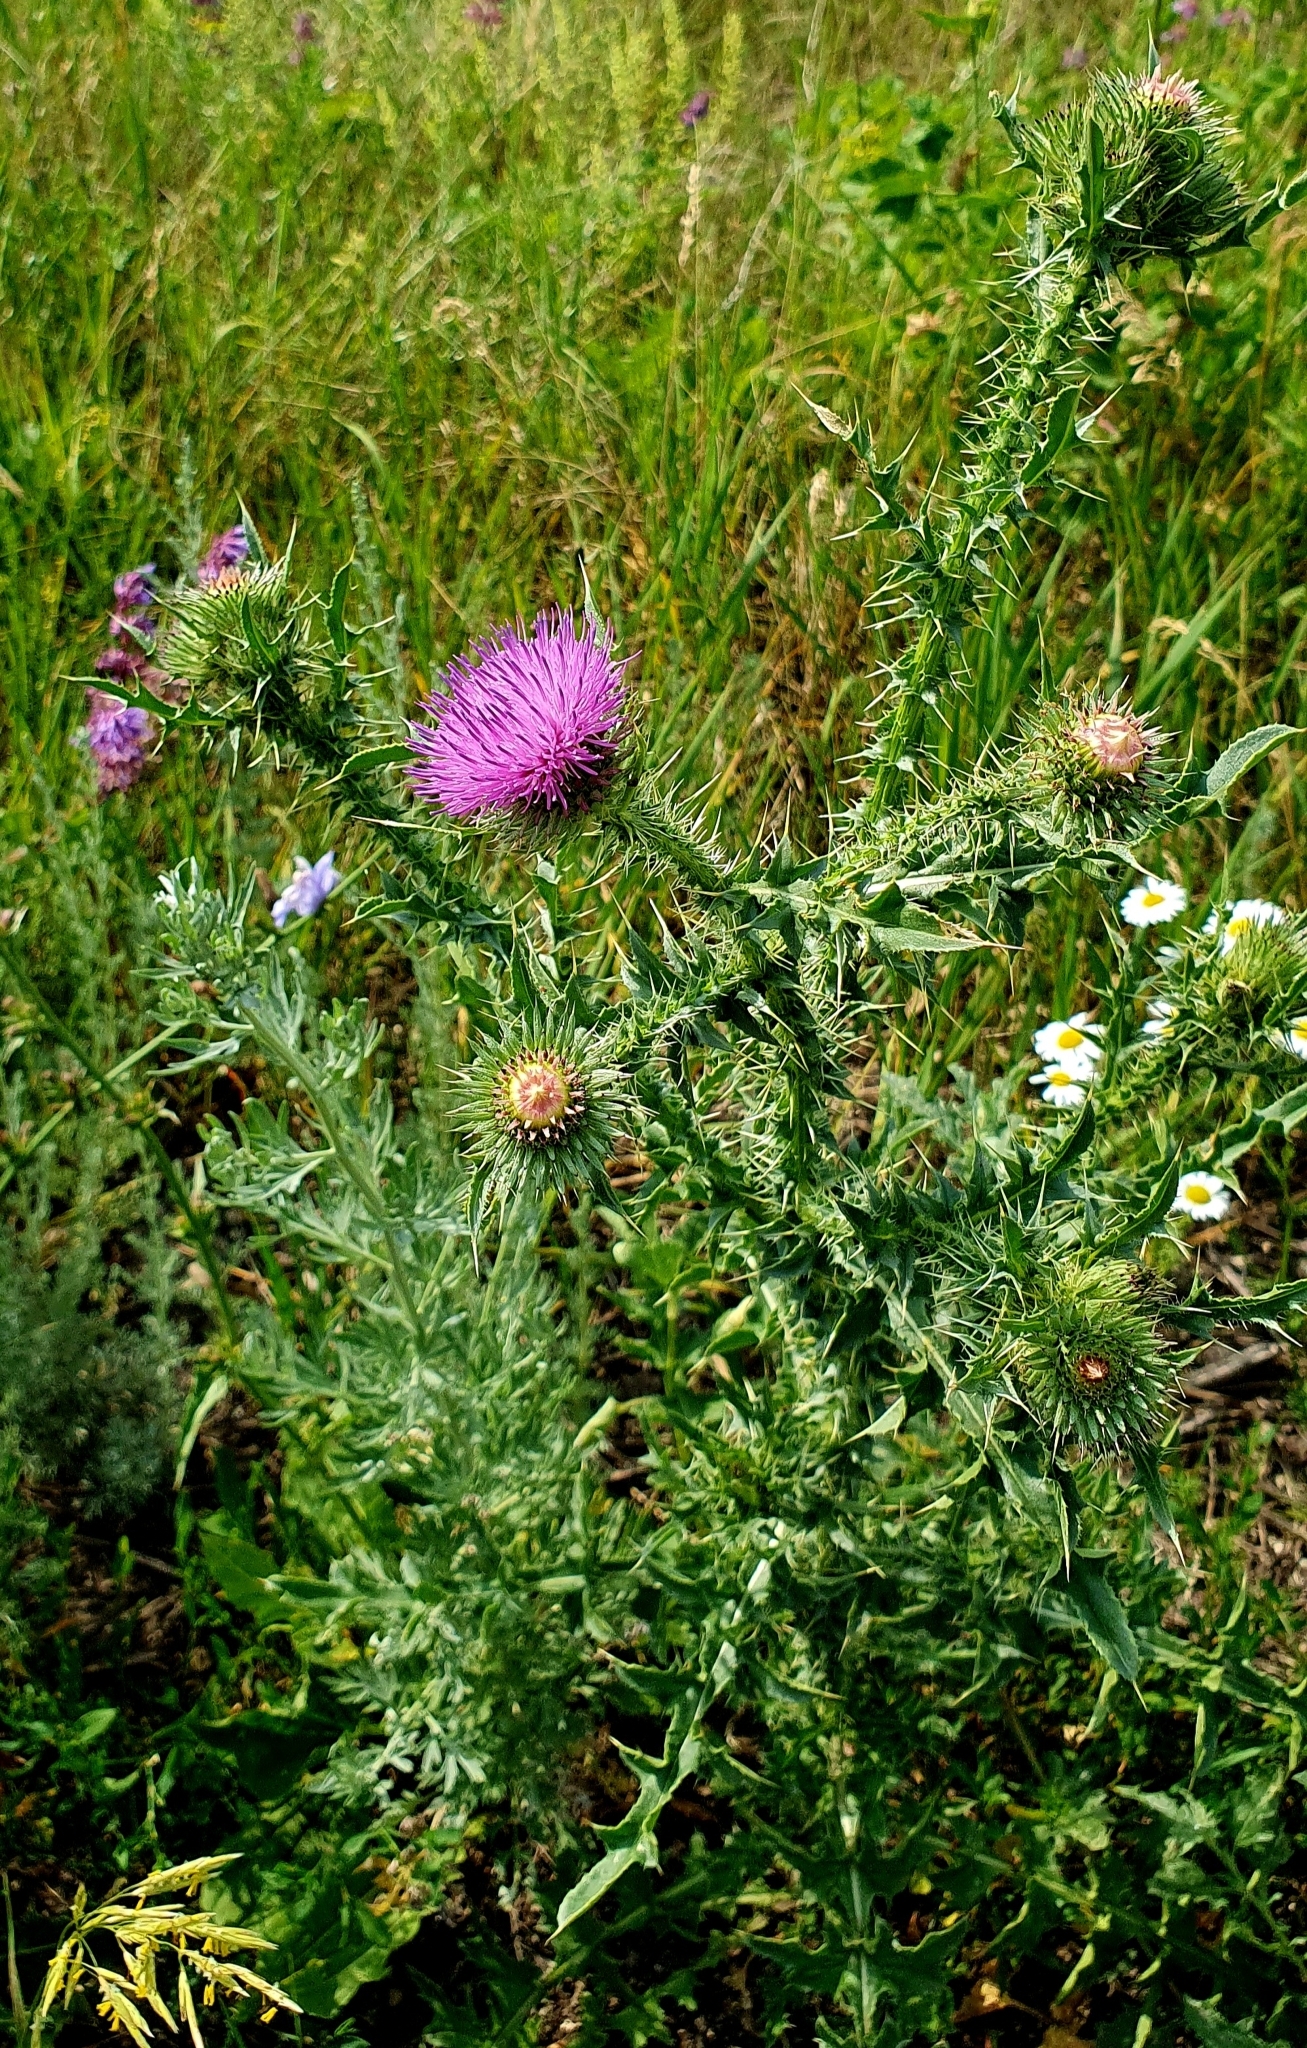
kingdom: Plantae
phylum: Tracheophyta
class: Magnoliopsida
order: Asterales
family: Asteraceae
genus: Carduus
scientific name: Carduus acanthoides
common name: Plumeless thistle
